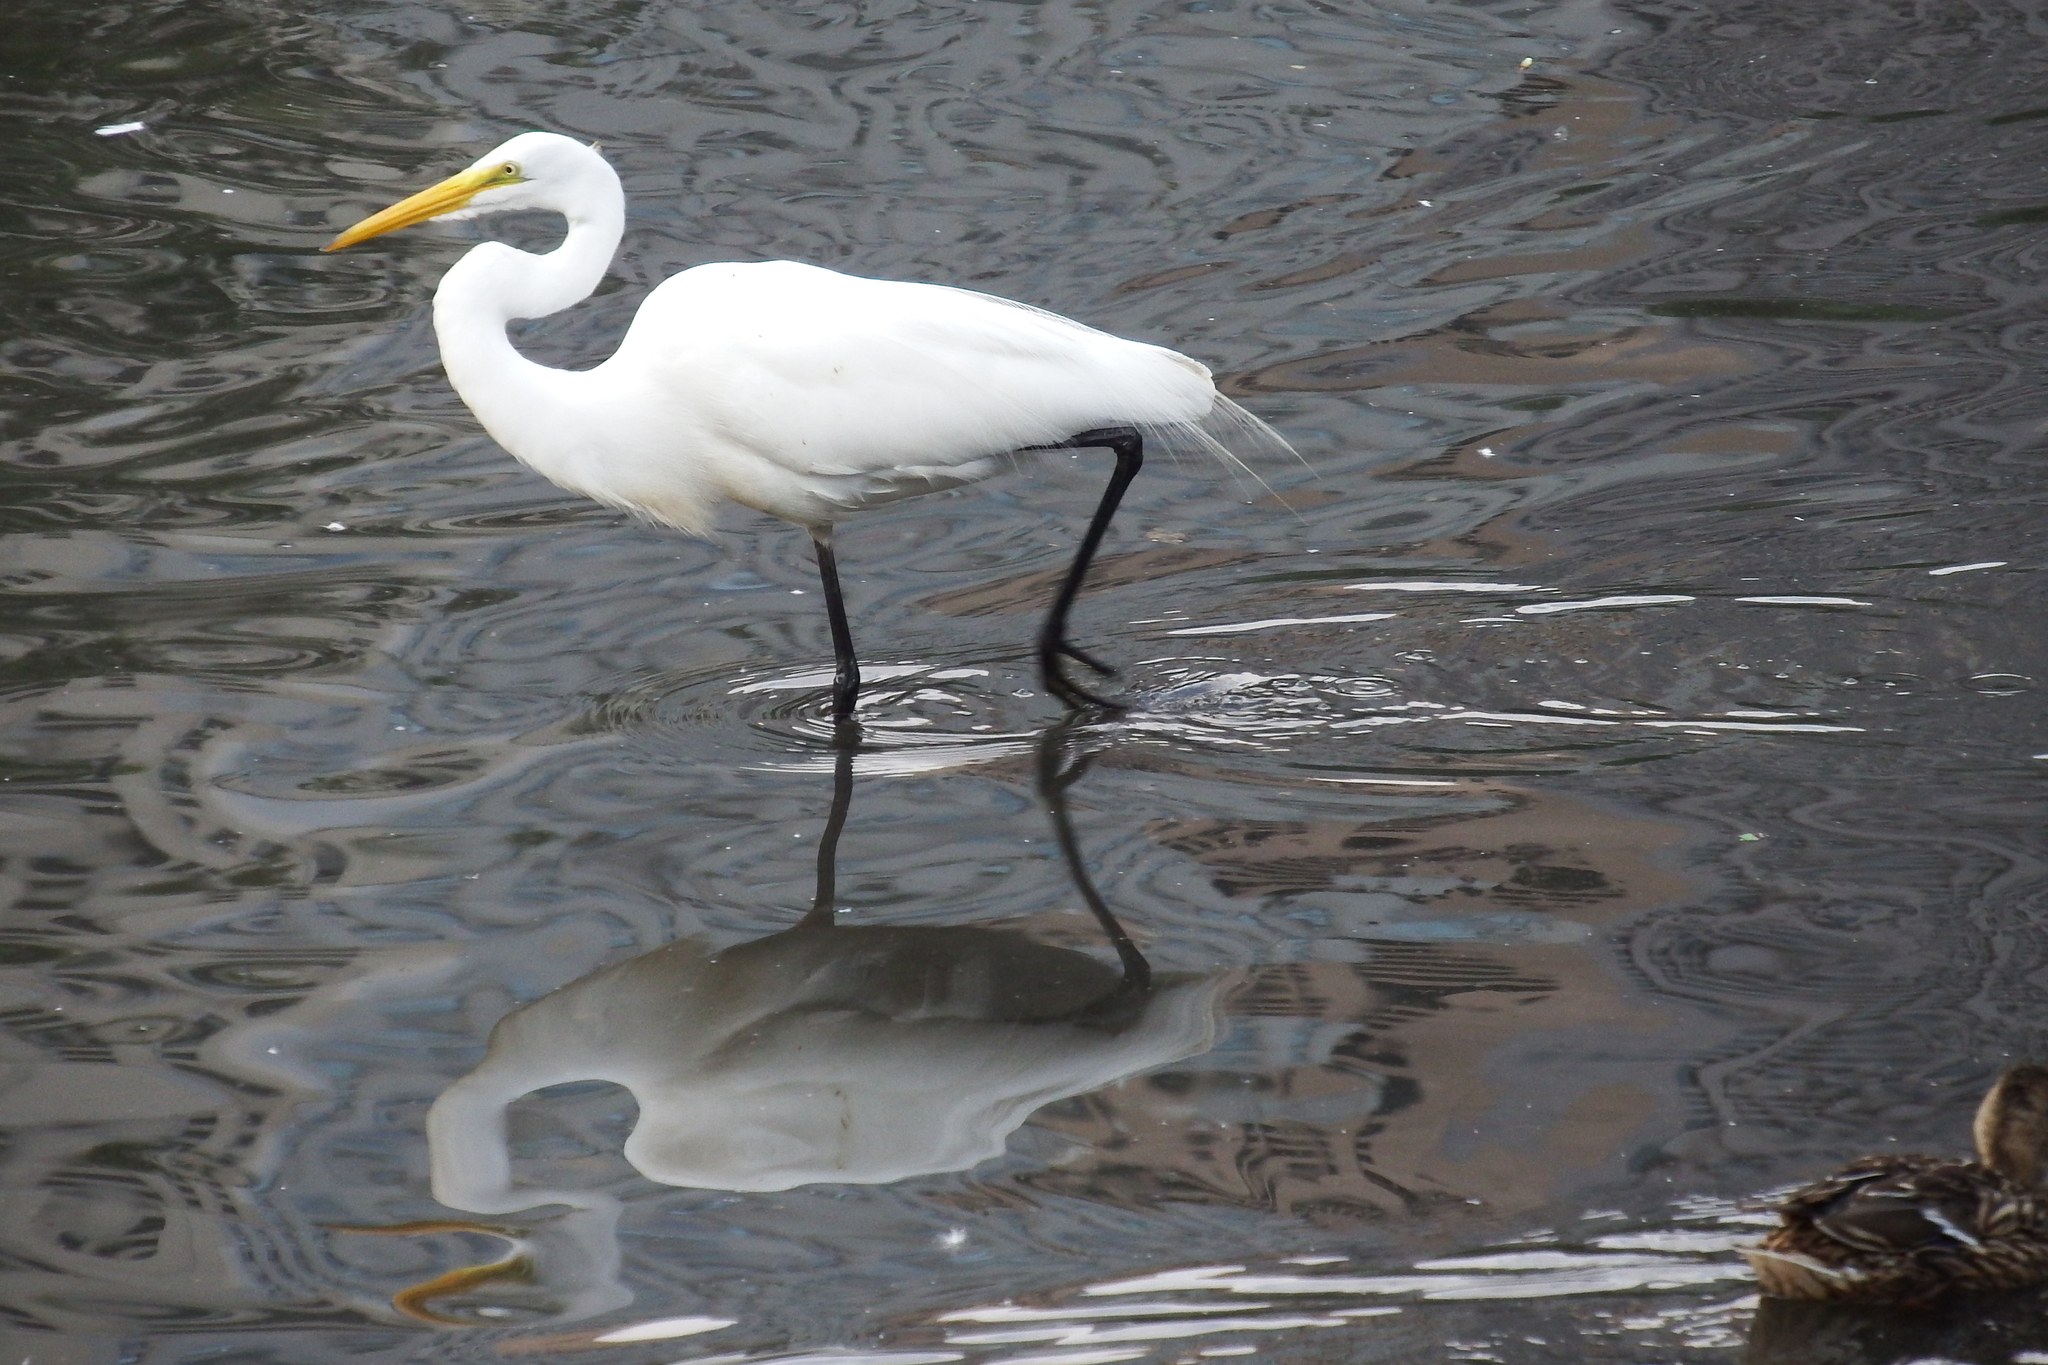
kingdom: Animalia
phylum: Chordata
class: Aves
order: Pelecaniformes
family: Ardeidae
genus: Ardea
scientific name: Ardea alba
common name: Great egret
